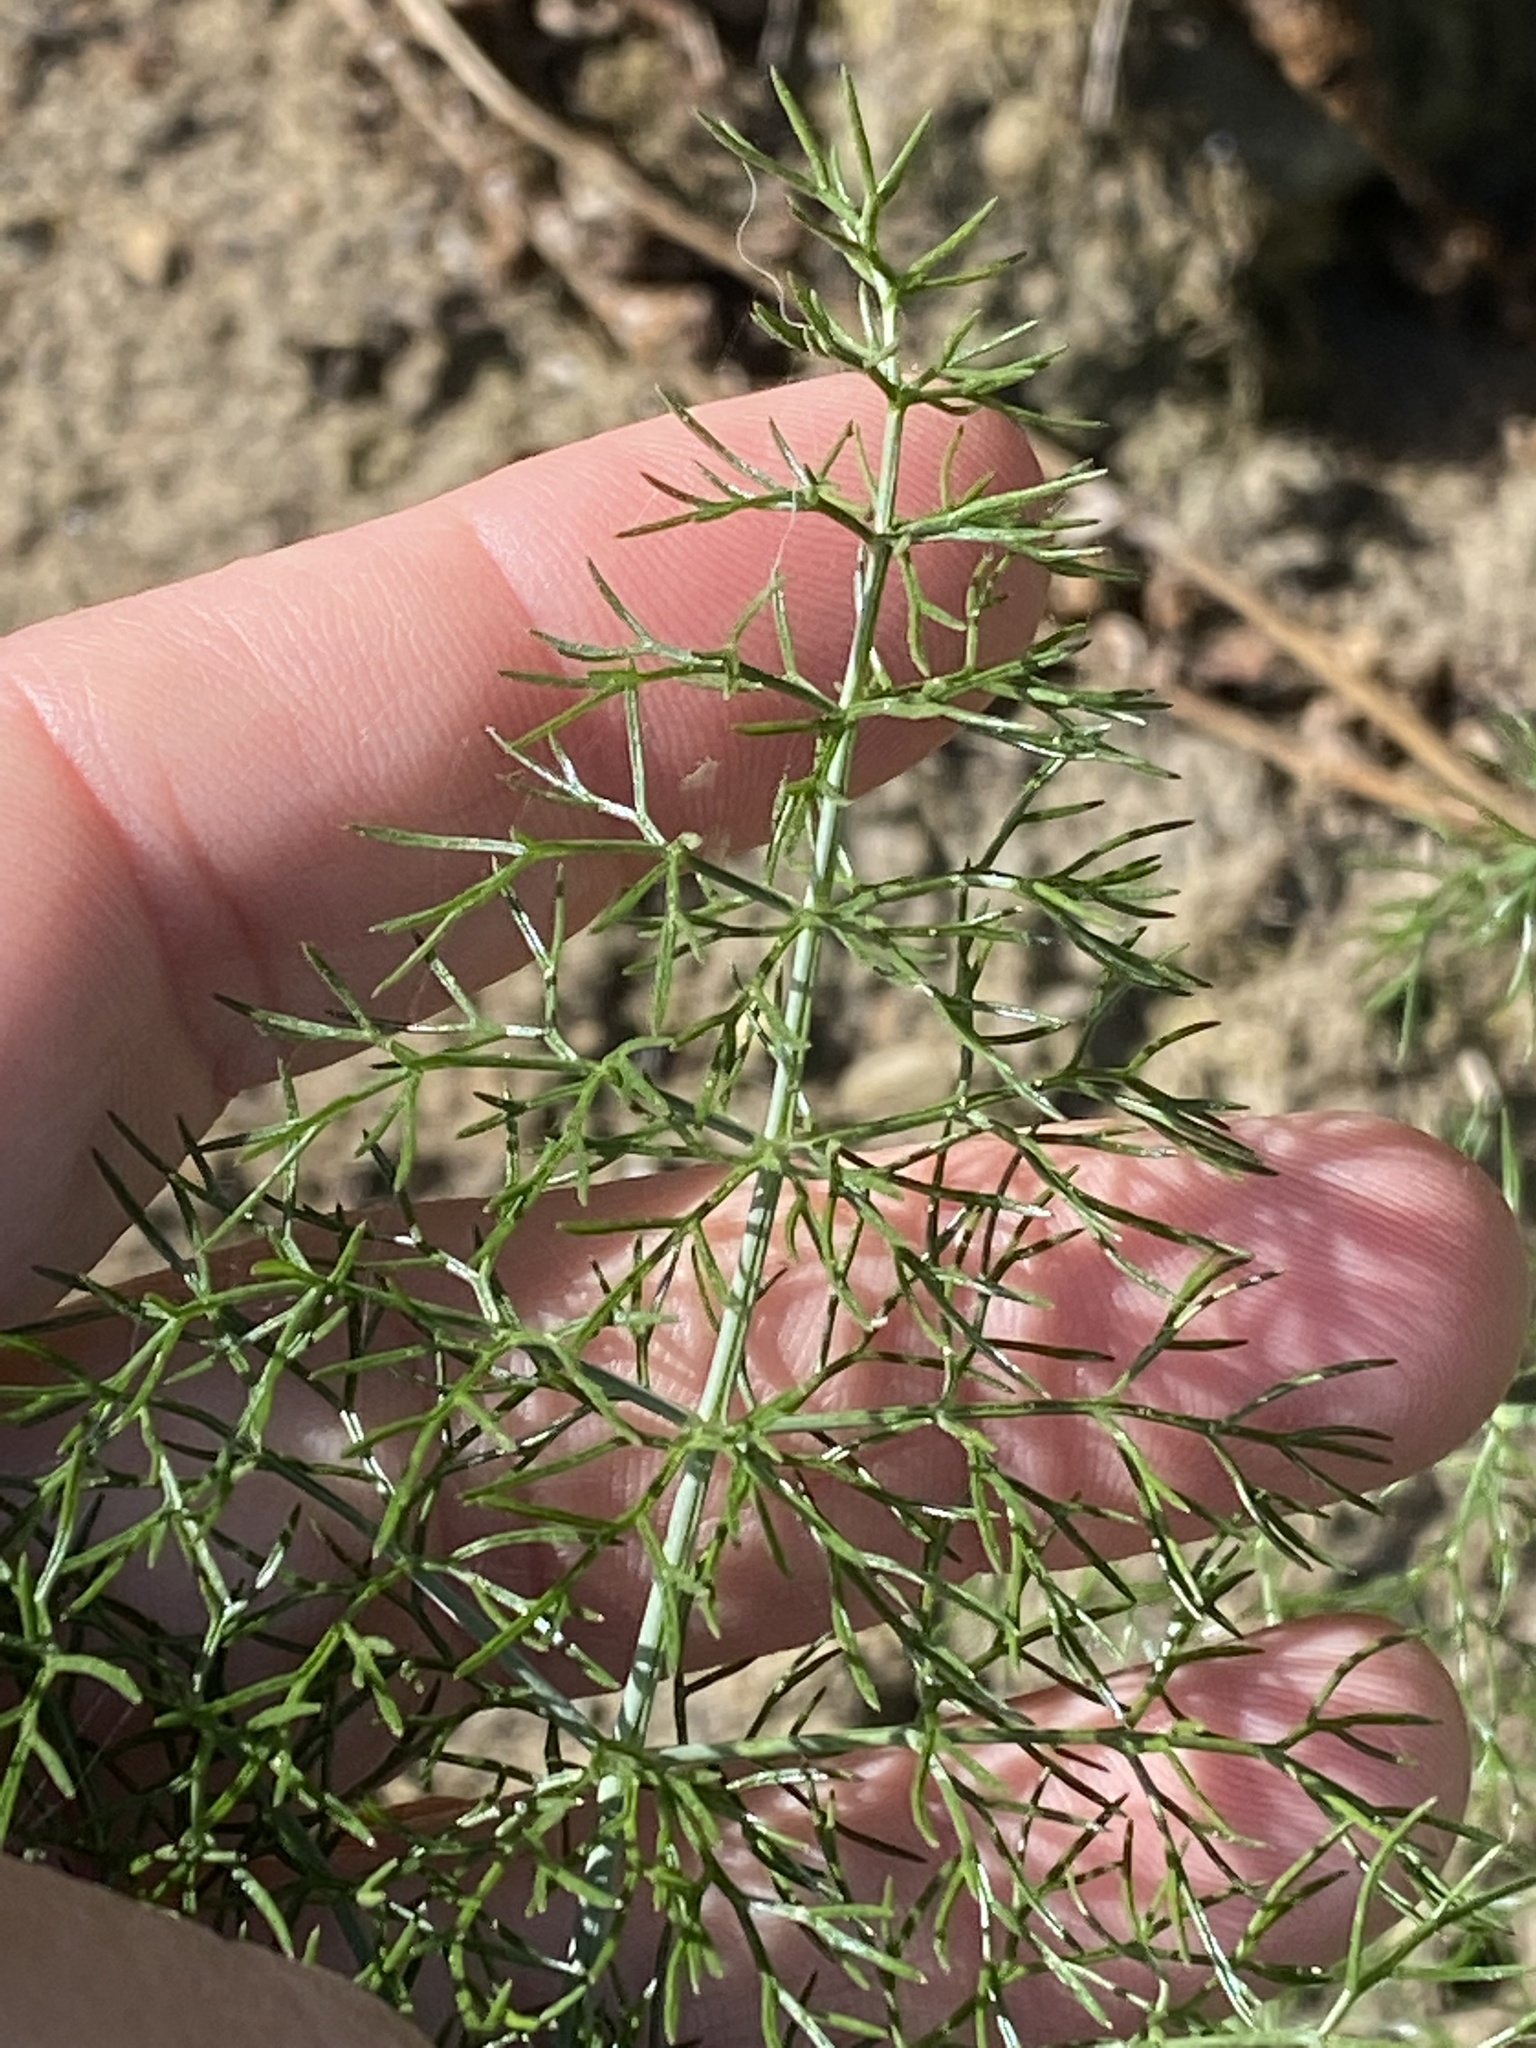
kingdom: Plantae
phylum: Tracheophyta
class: Magnoliopsida
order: Apiales
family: Apiaceae
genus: Foeniculum
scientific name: Foeniculum vulgare
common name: Fennel
